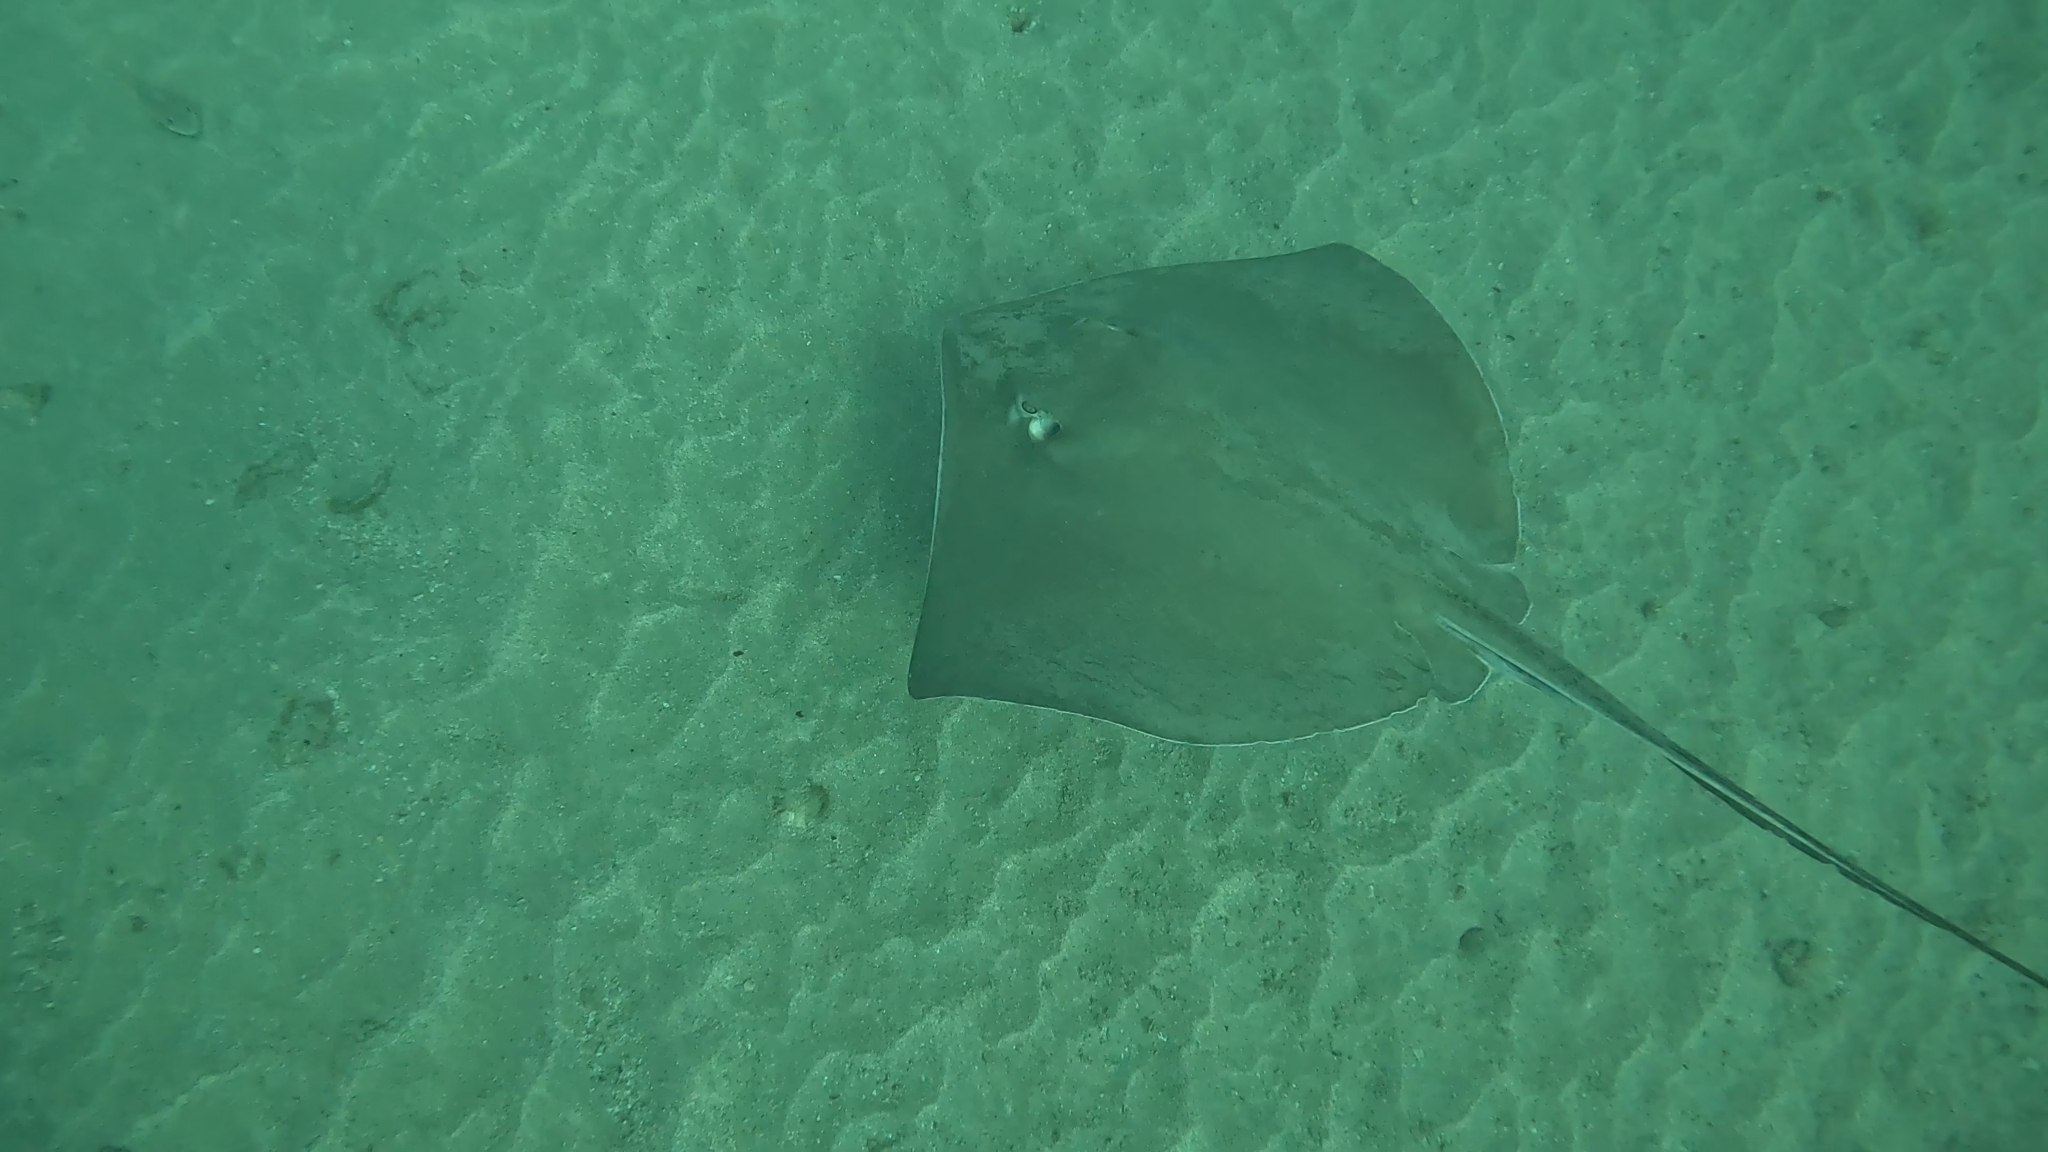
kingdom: Animalia
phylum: Chordata
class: Elasmobranchii
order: Myliobatiformes
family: Dasyatidae
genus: Hypanus
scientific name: Hypanus longus
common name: Longtail stingray
